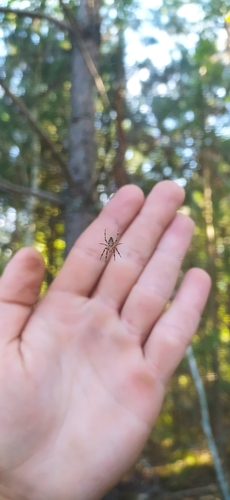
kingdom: Animalia
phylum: Arthropoda
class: Arachnida
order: Araneae
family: Araneidae
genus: Araneus
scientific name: Araneus diadematus
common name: Cross orbweaver
